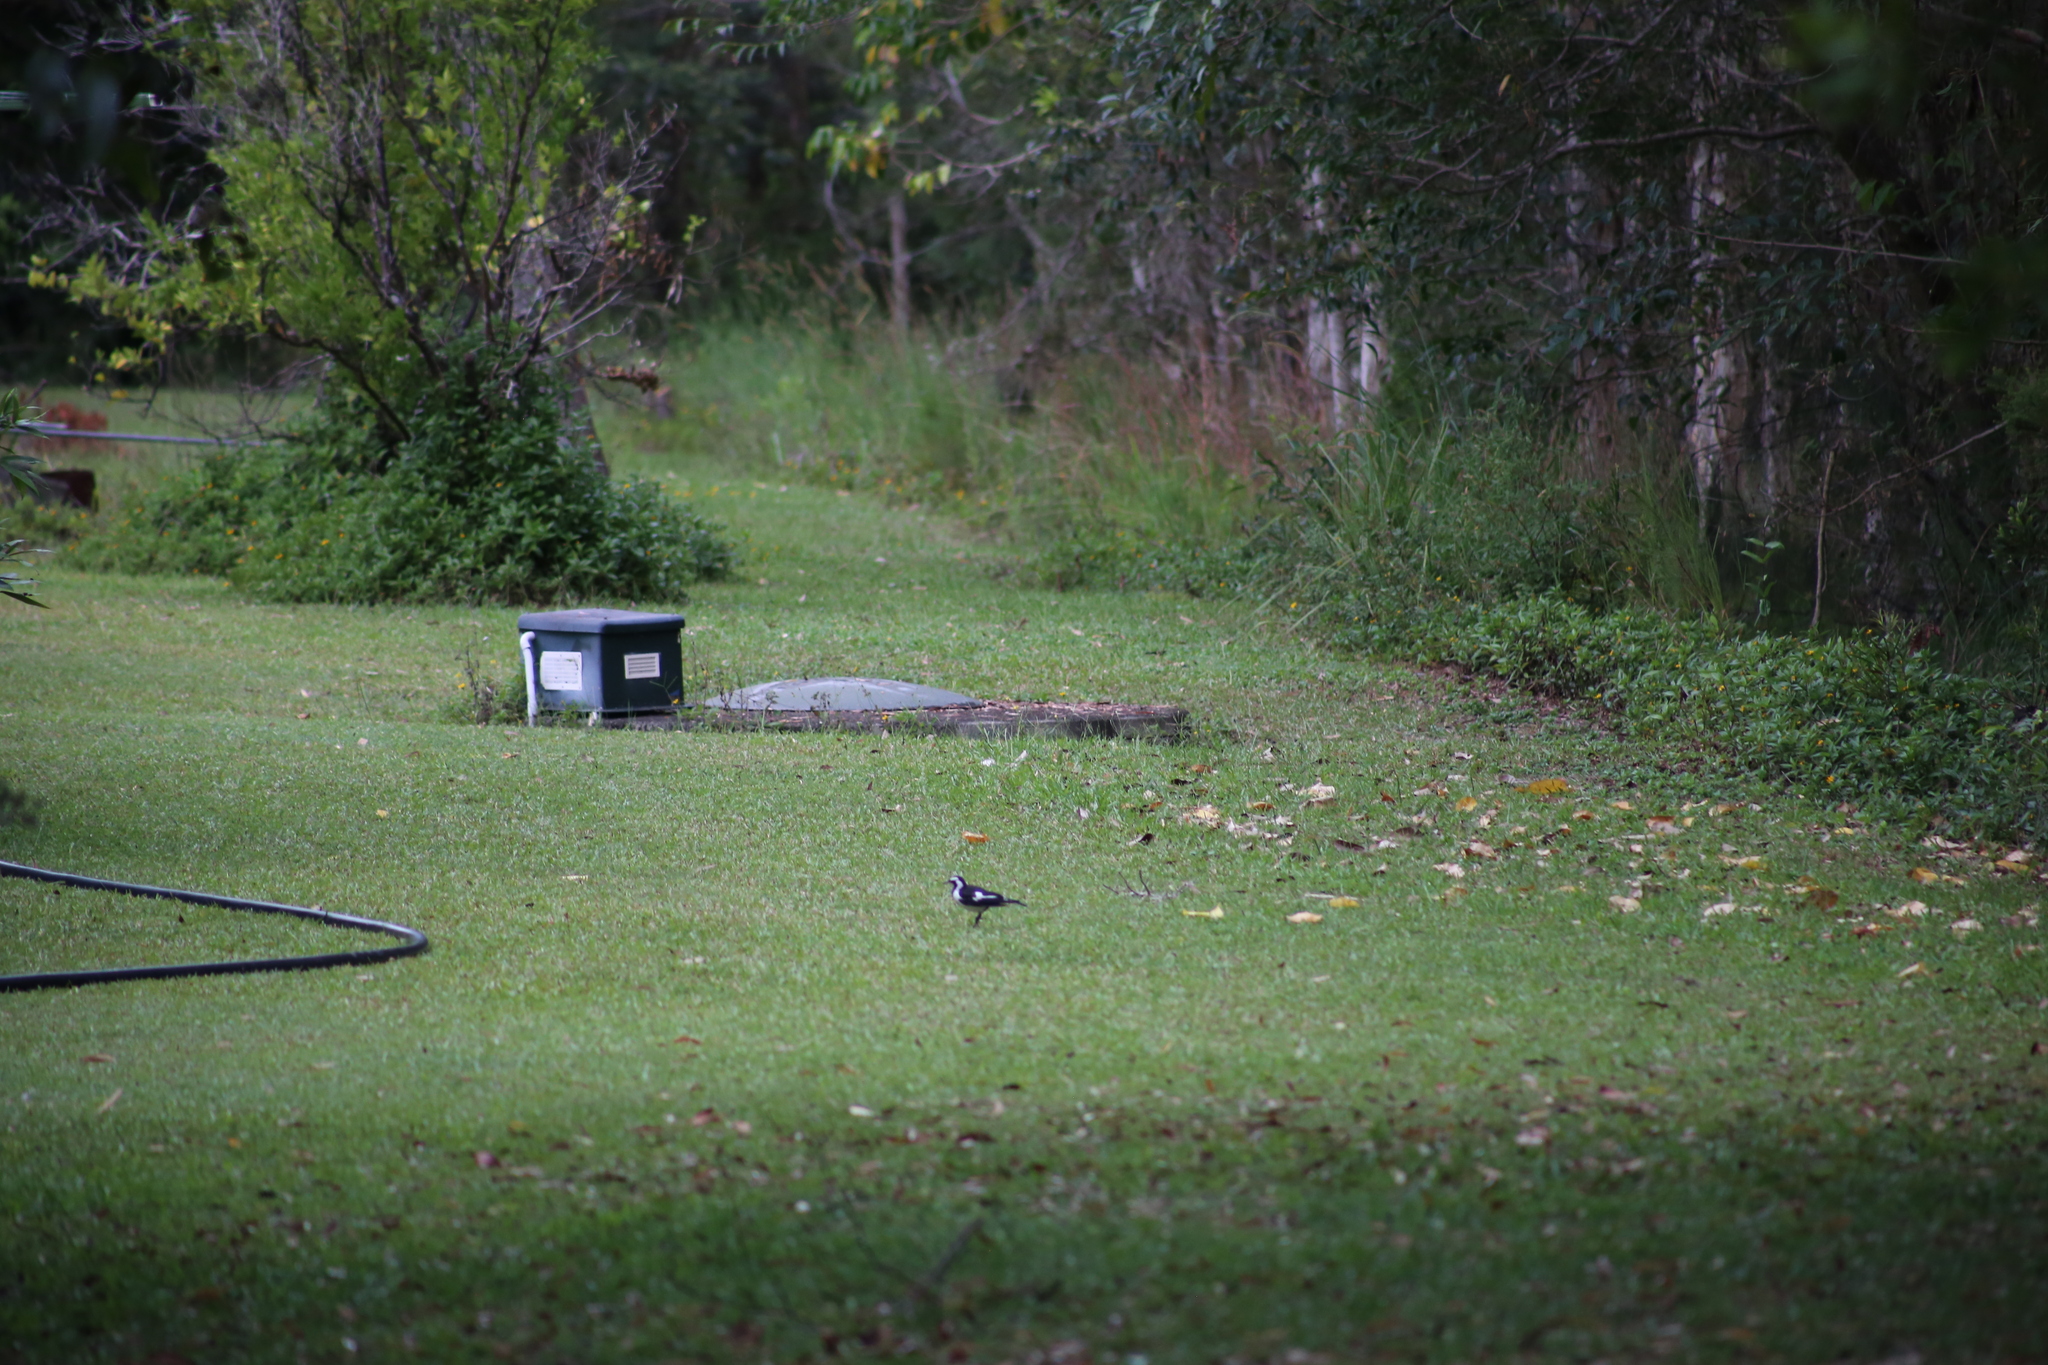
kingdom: Animalia
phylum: Chordata
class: Aves
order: Passeriformes
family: Monarchidae
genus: Grallina
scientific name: Grallina cyanoleuca
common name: Magpie-lark
